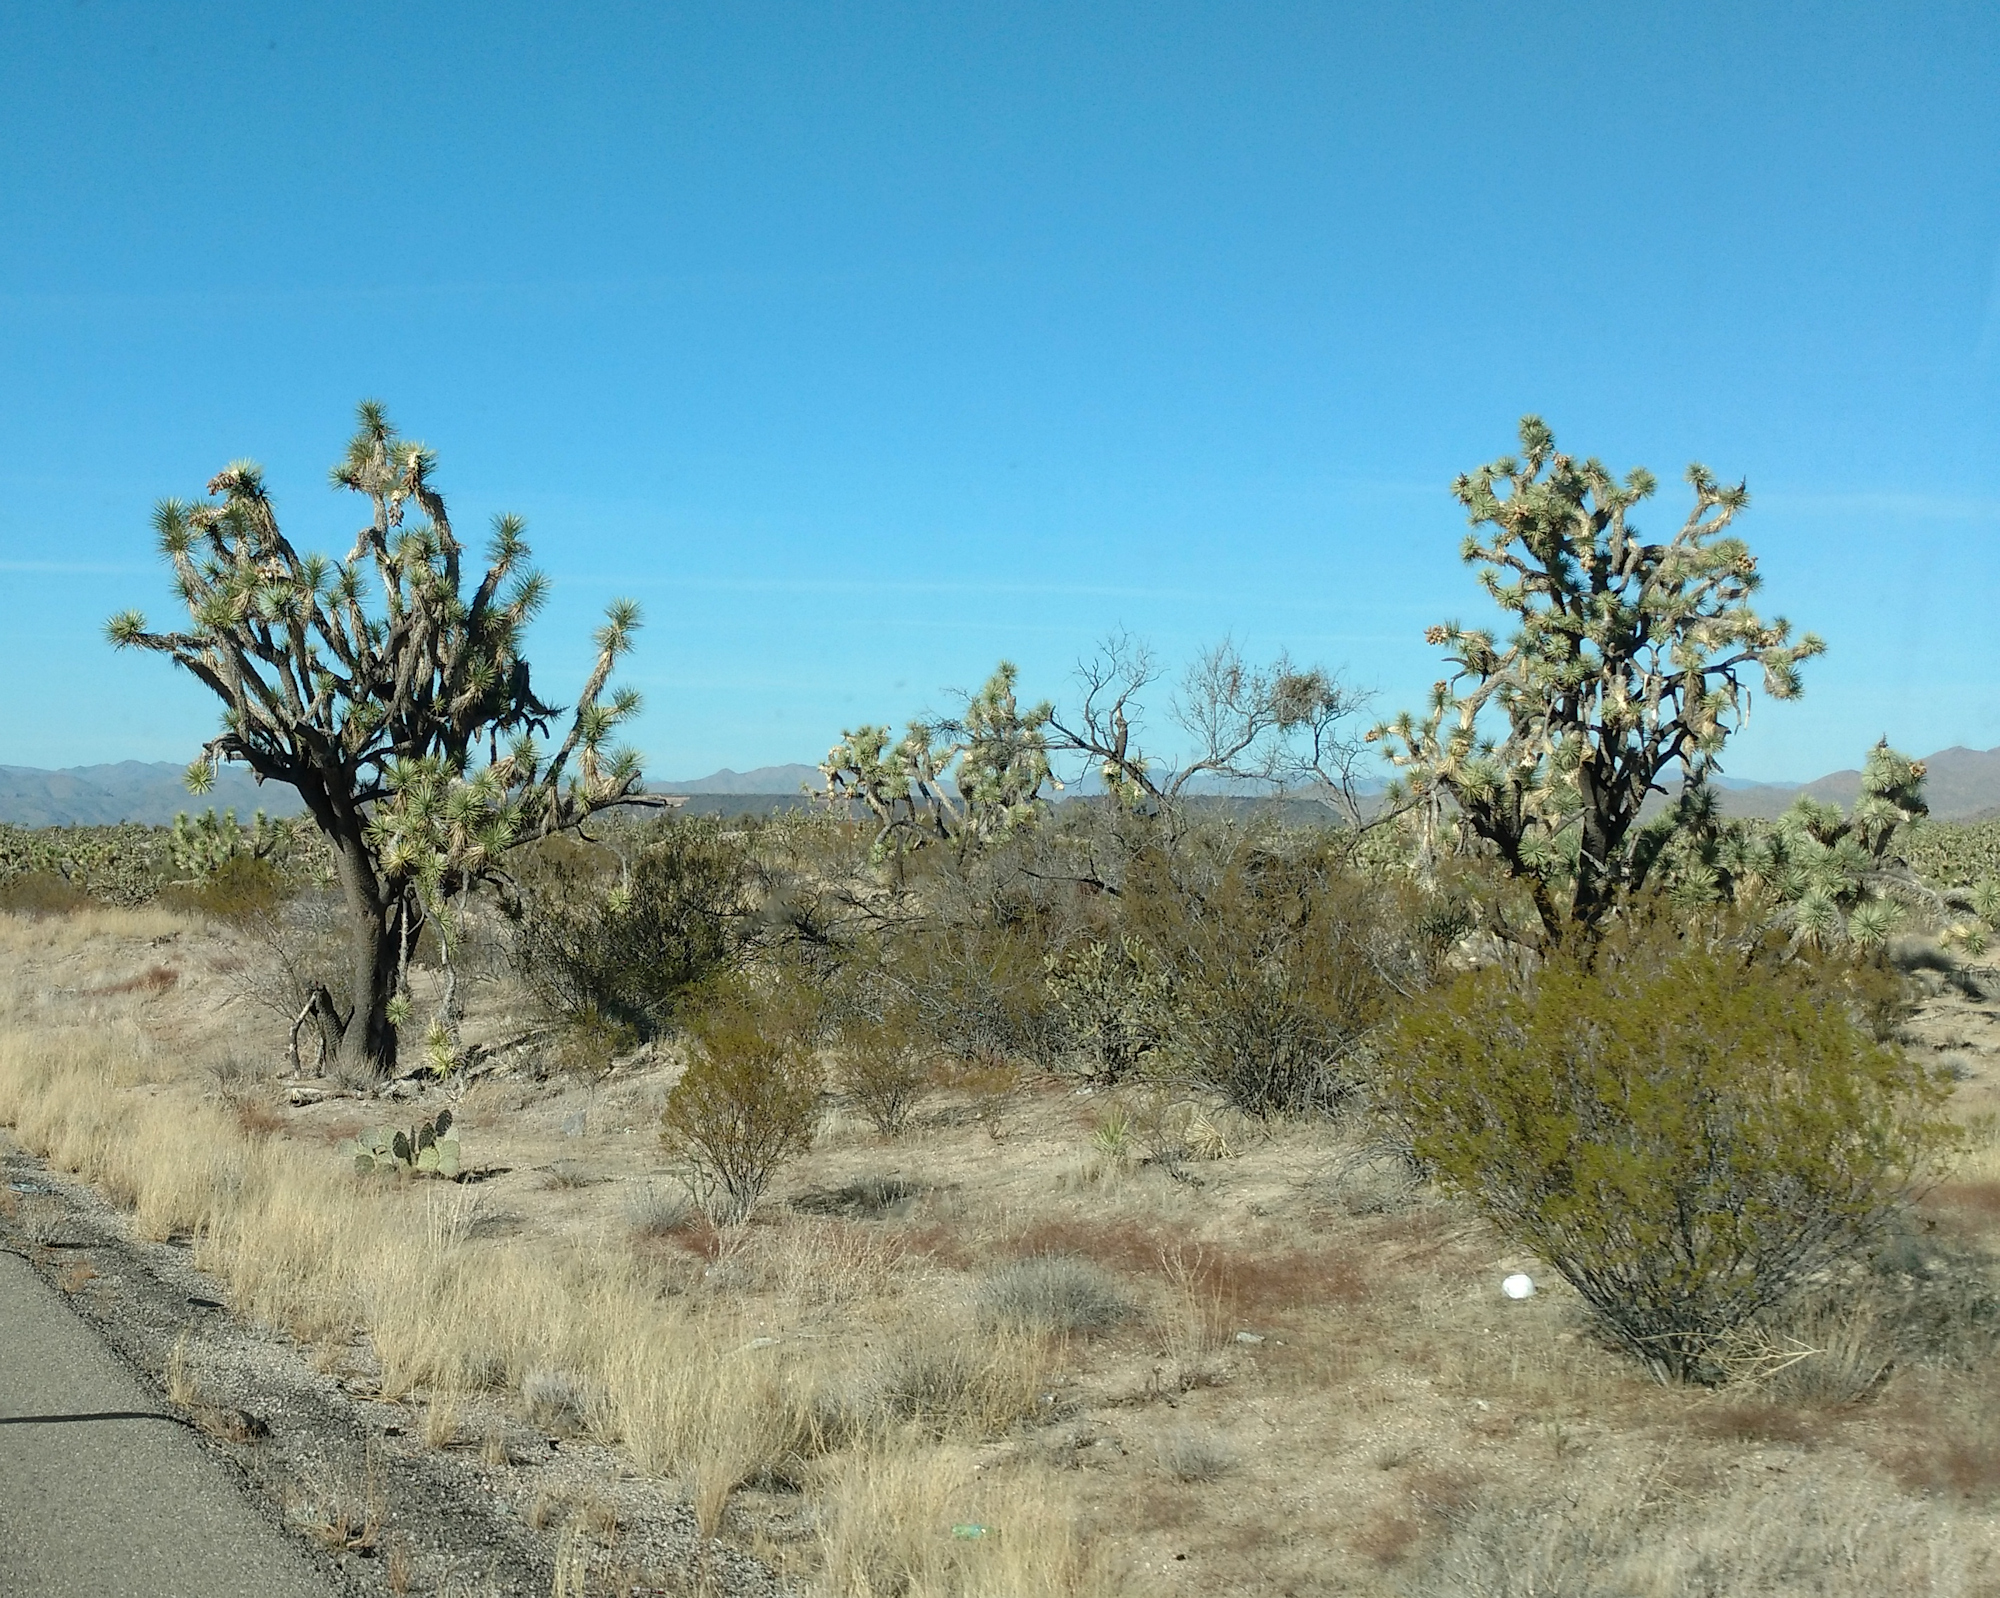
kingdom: Plantae
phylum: Tracheophyta
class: Liliopsida
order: Asparagales
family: Asparagaceae
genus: Yucca
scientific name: Yucca brevifolia
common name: Joshua tree
